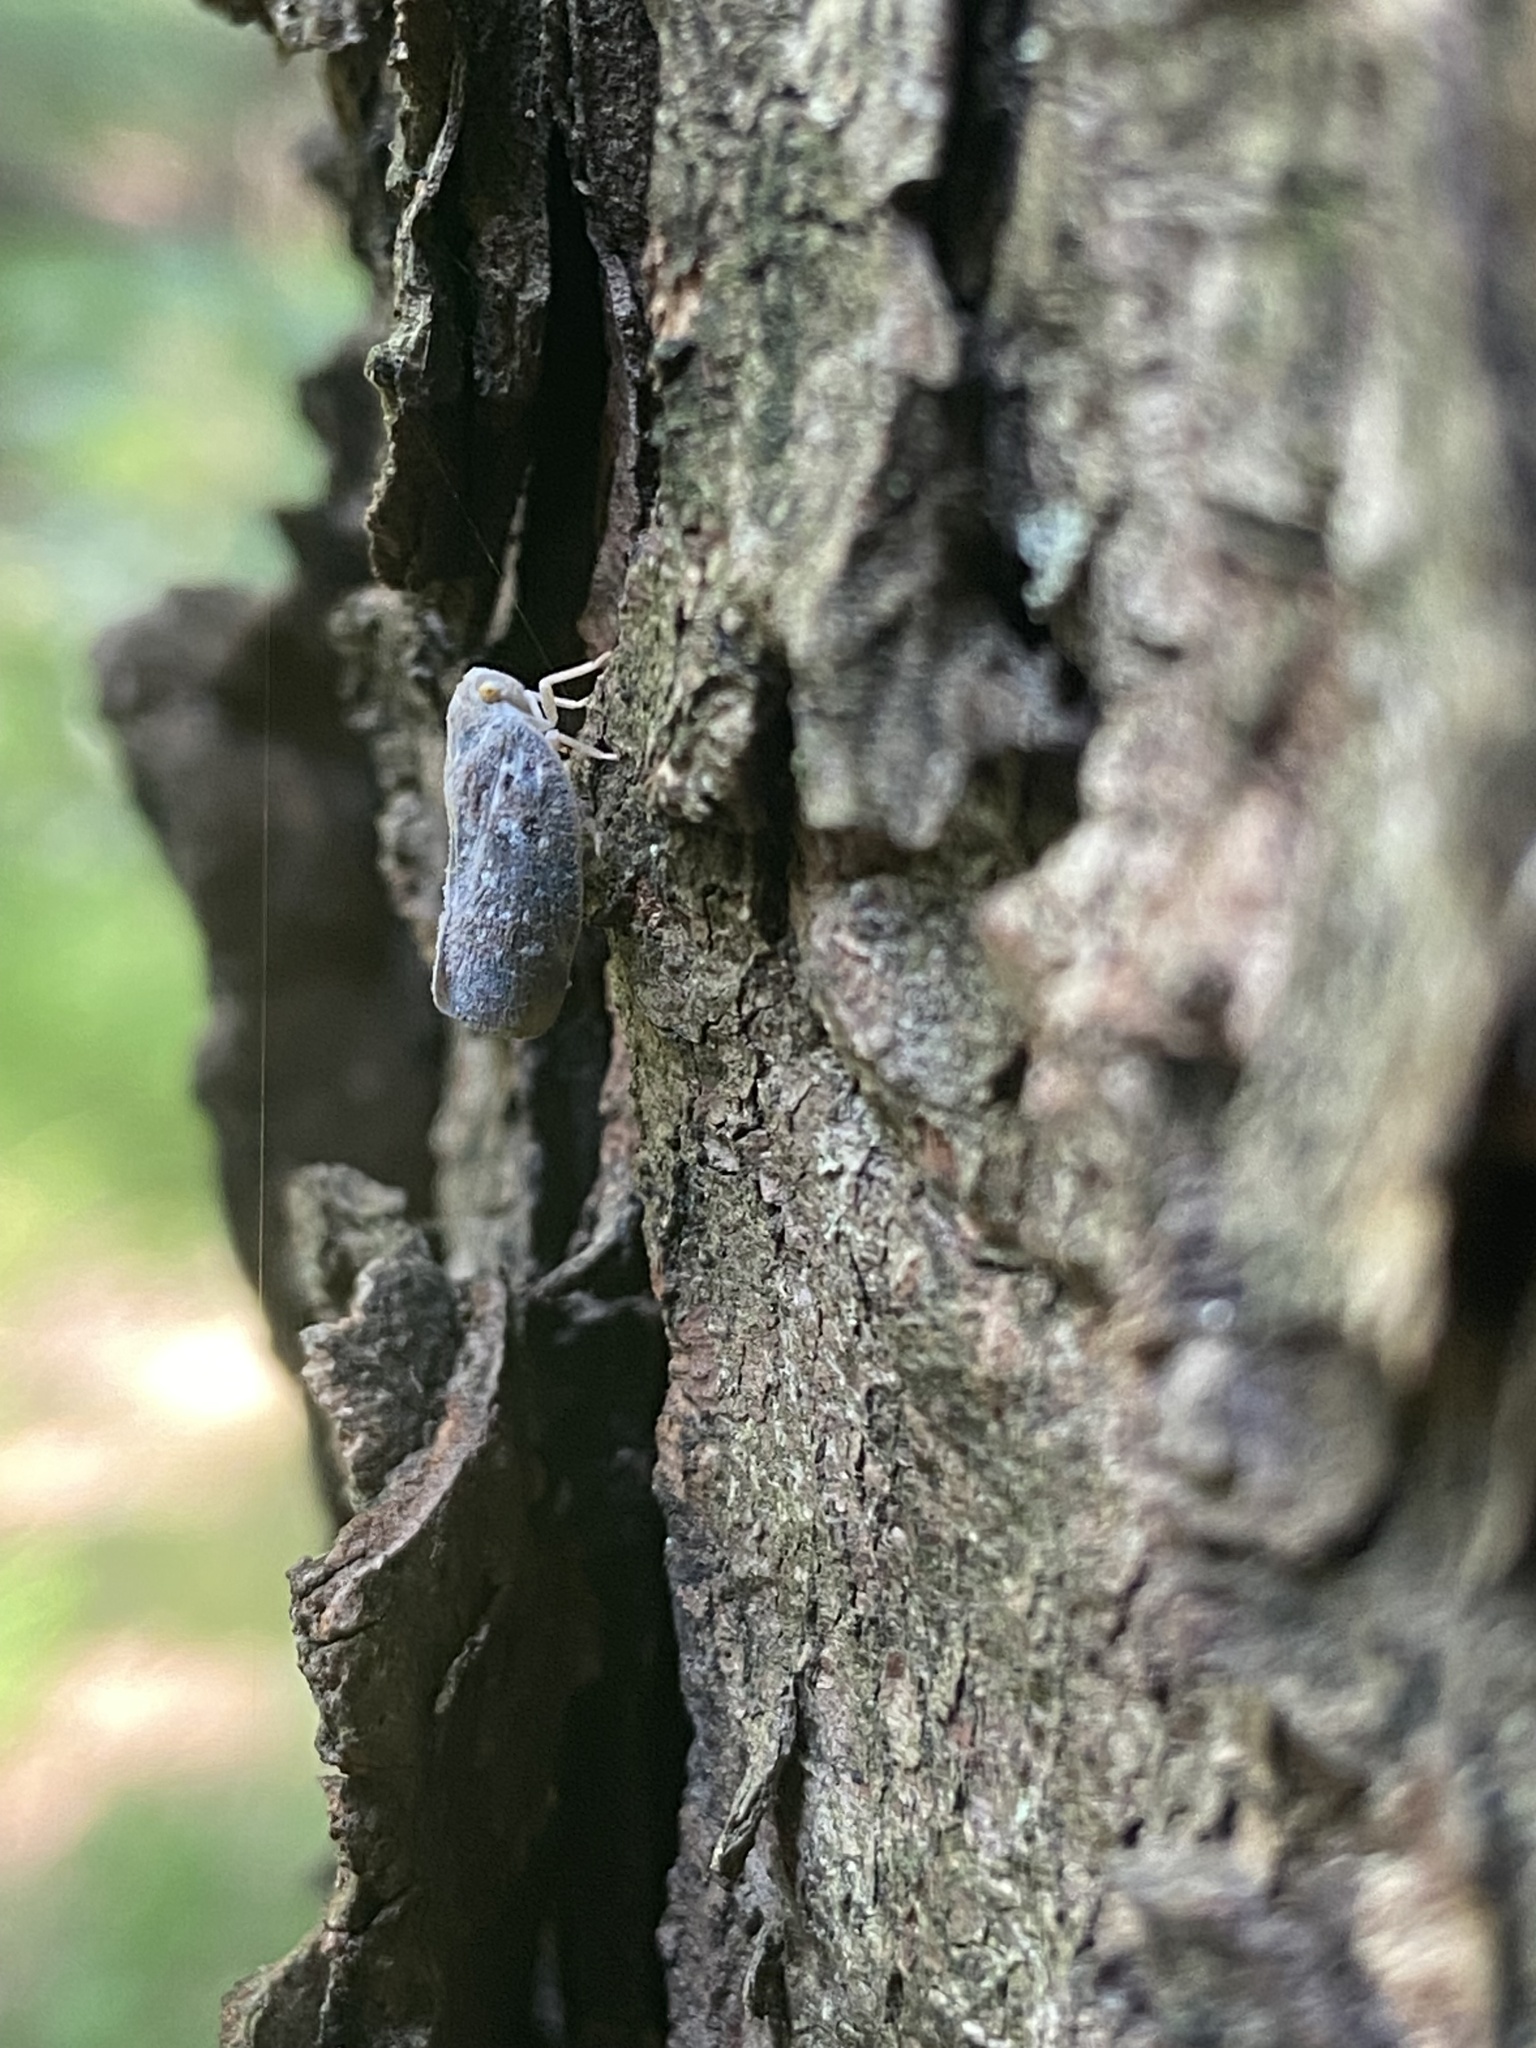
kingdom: Animalia
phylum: Arthropoda
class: Insecta
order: Hemiptera
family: Flatidae
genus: Metcalfa
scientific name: Metcalfa pruinosa
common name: Citrus flatid planthopper
